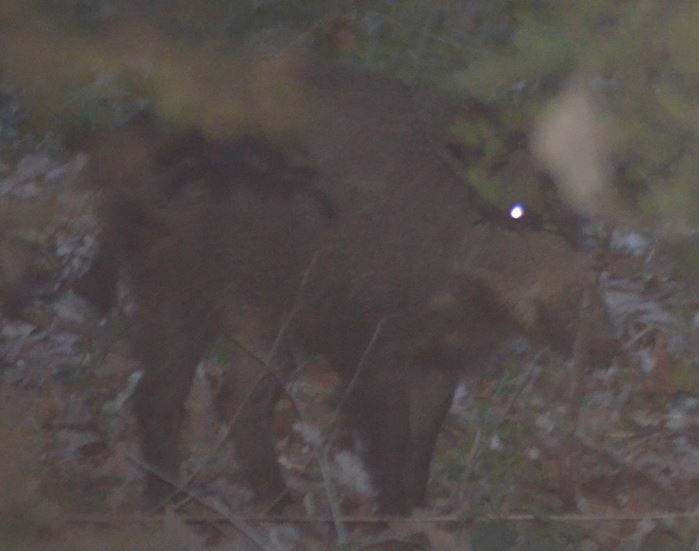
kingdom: Animalia
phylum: Chordata
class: Mammalia
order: Artiodactyla
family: Suidae
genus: Sus
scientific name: Sus scrofa
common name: Wild boar
